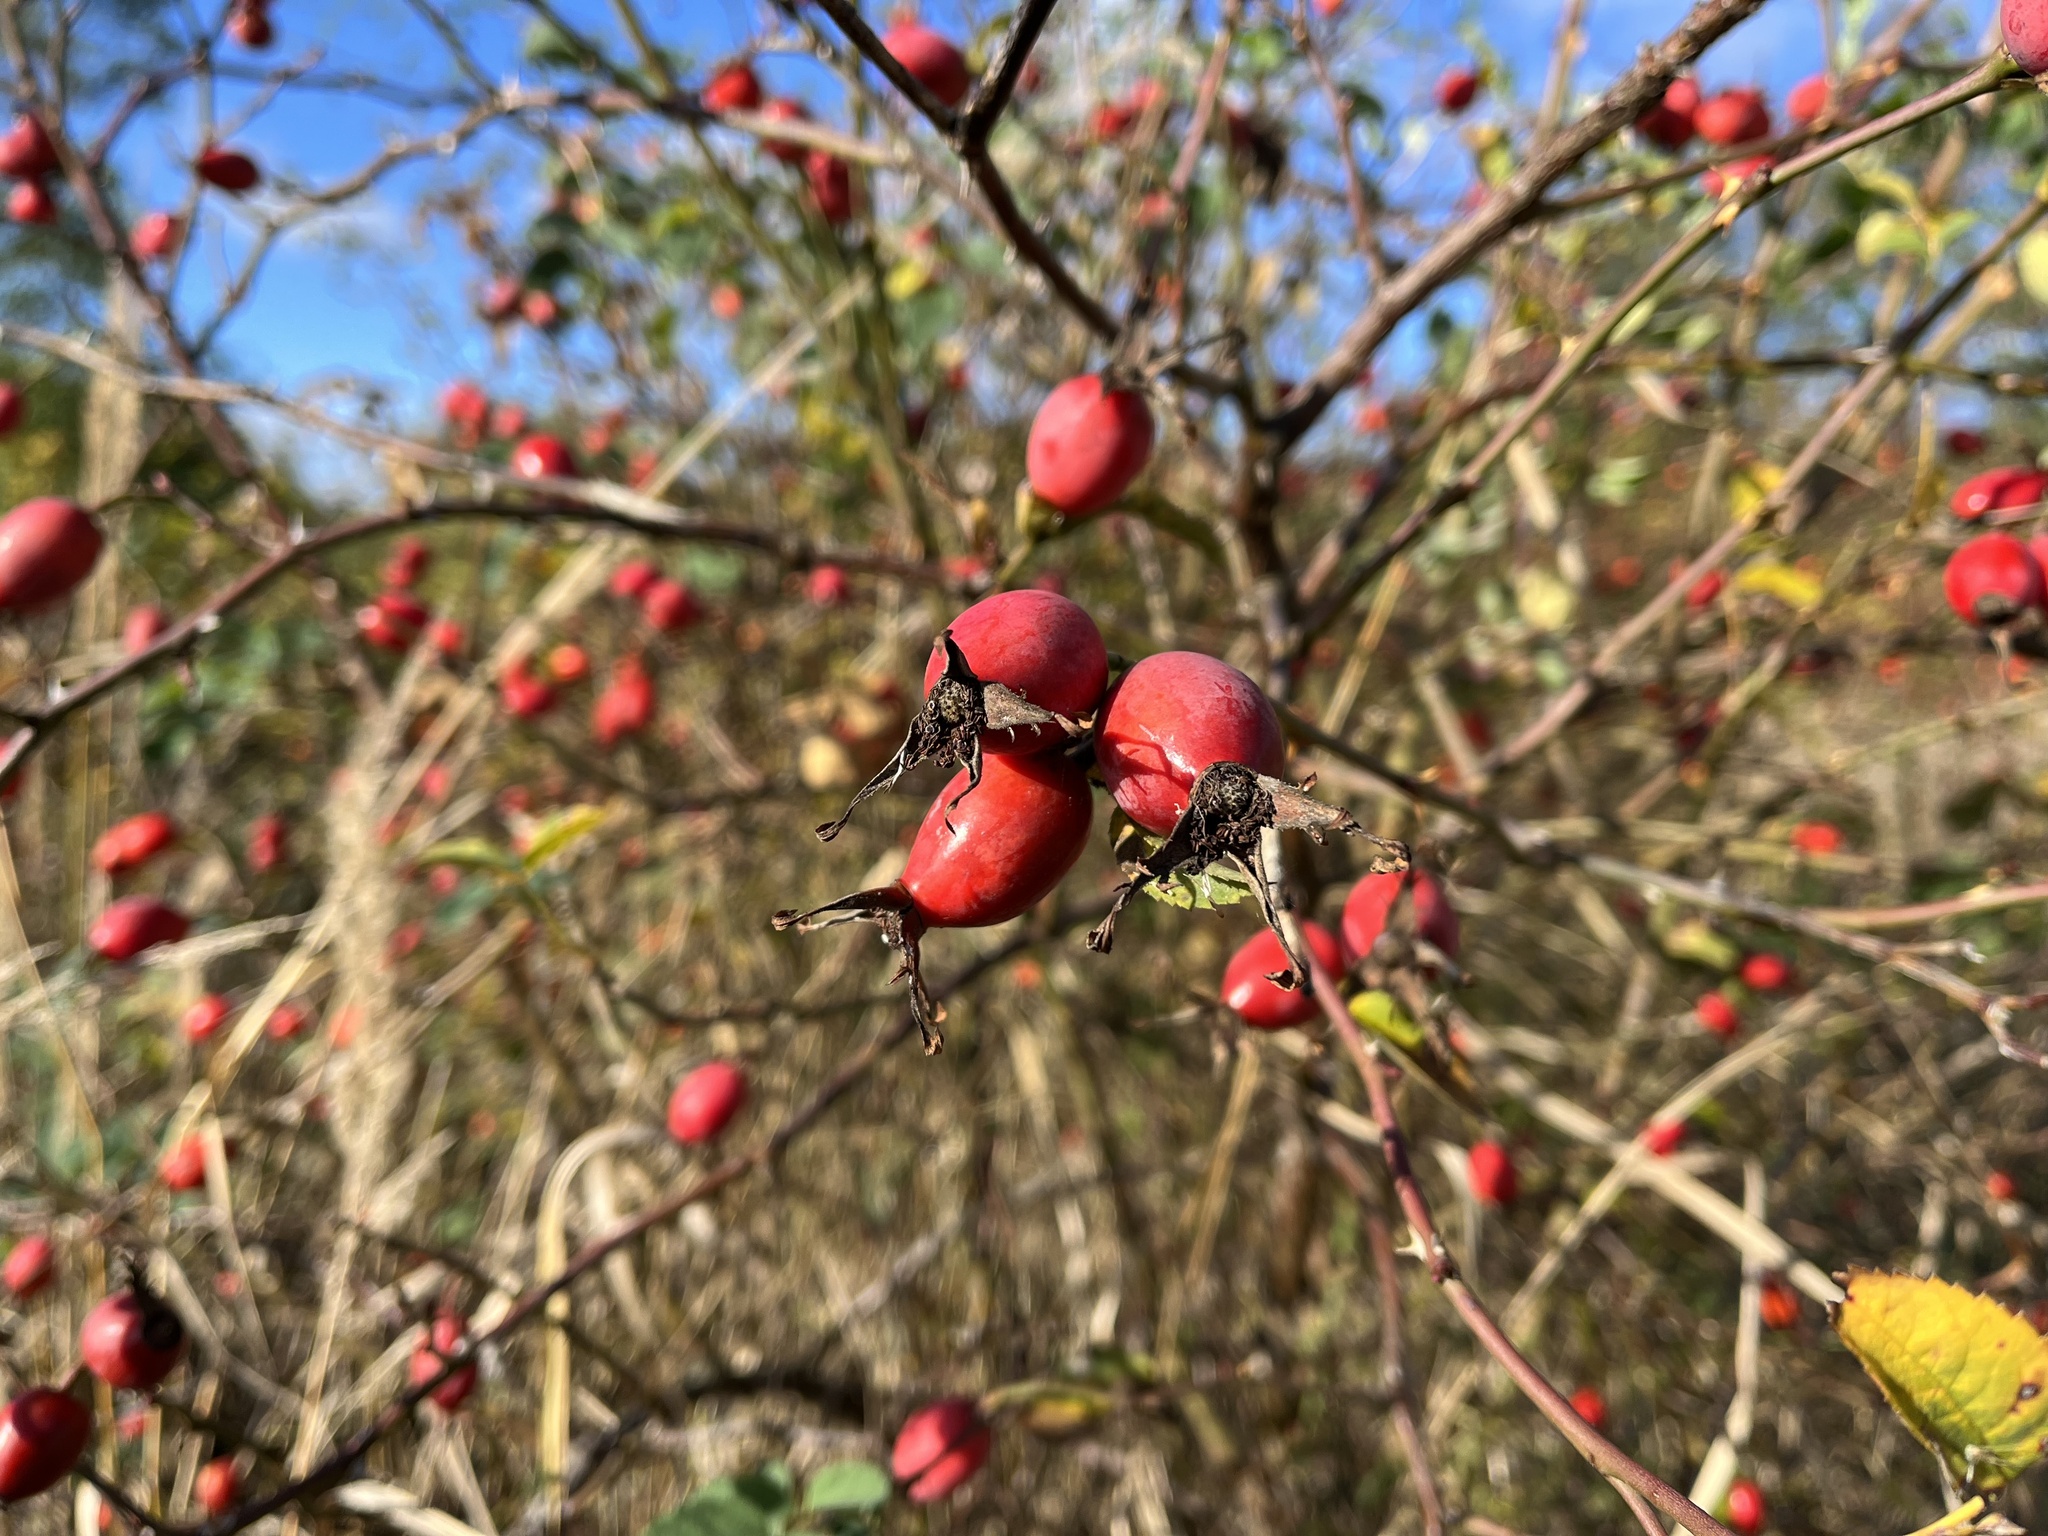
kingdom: Plantae
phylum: Tracheophyta
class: Magnoliopsida
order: Rosales
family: Rosaceae
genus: Rosa
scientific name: Rosa dumalis
